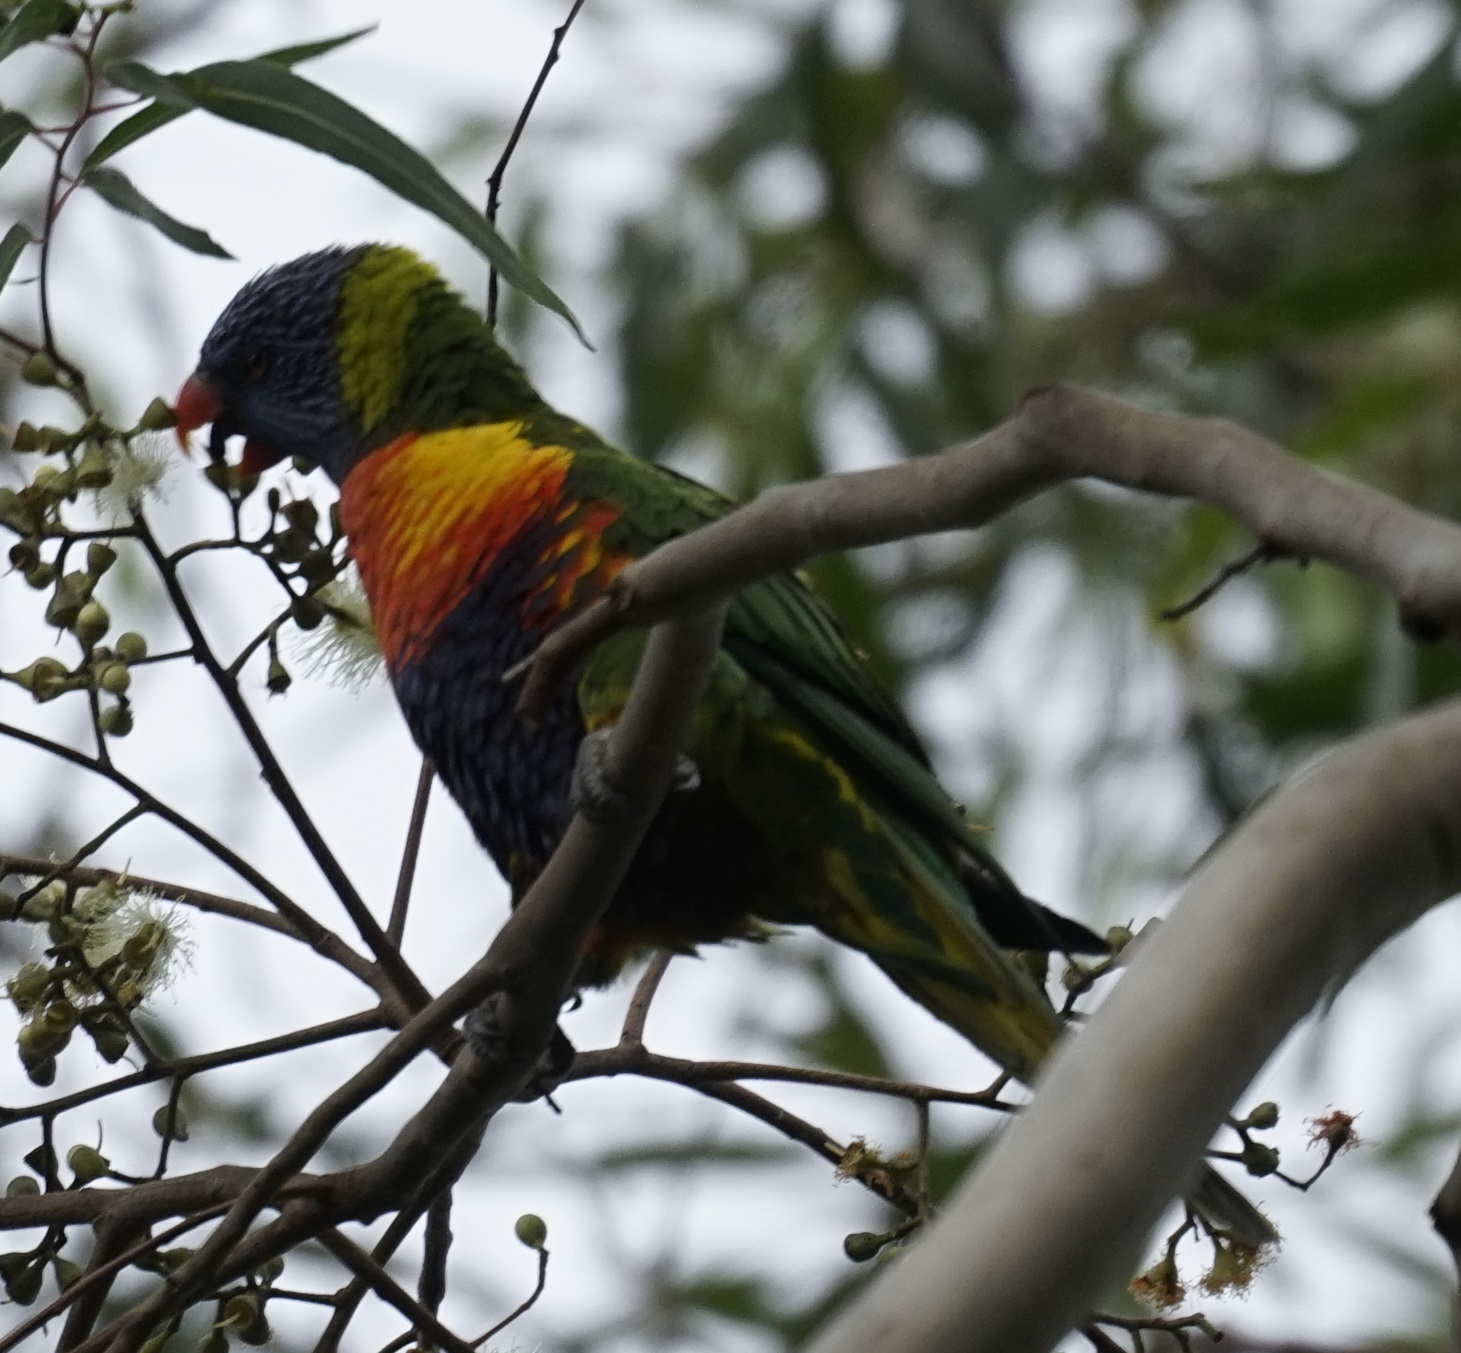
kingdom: Animalia
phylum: Chordata
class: Aves
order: Psittaciformes
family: Psittacidae
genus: Trichoglossus
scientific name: Trichoglossus haematodus
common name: Coconut lorikeet
